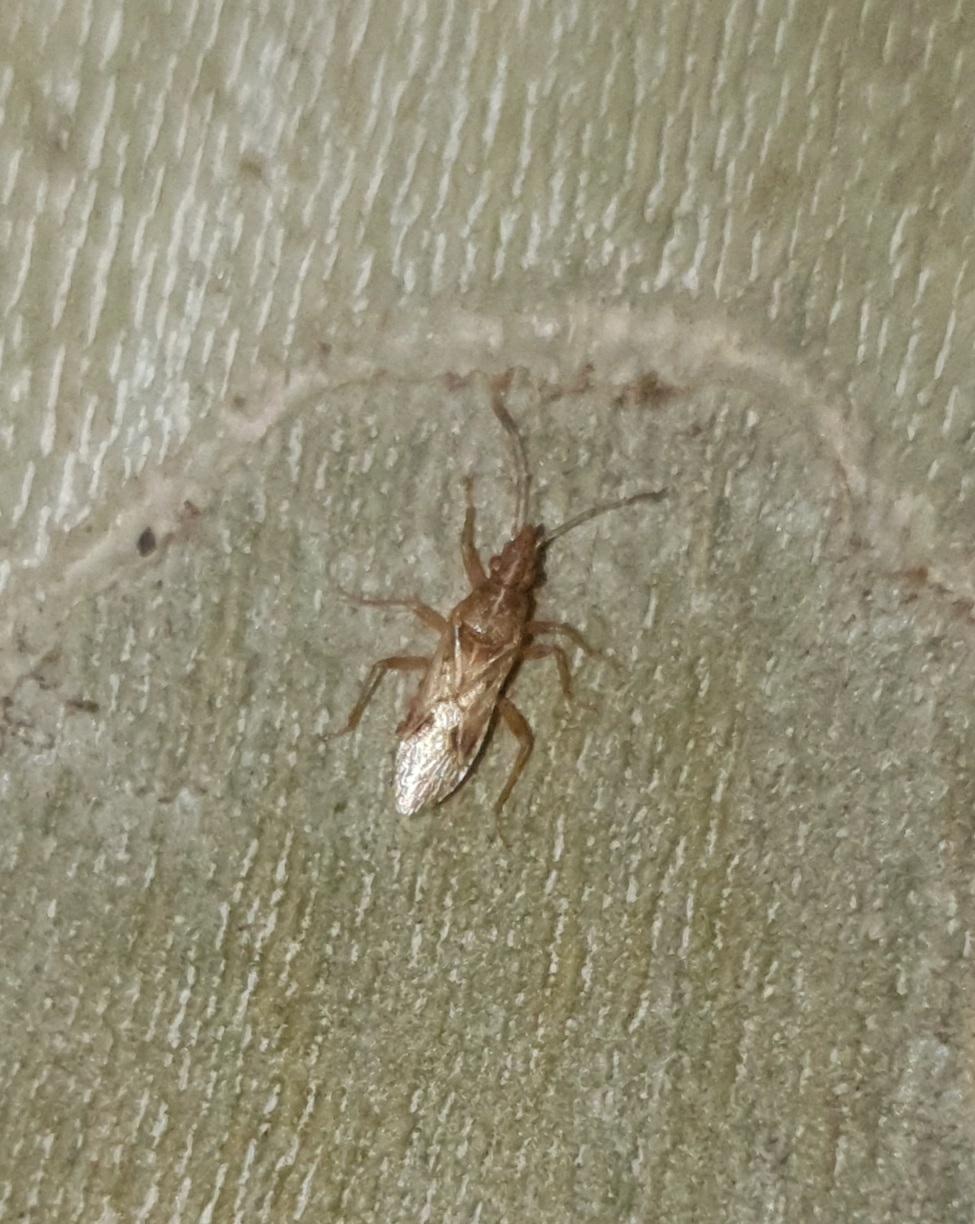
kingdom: Animalia
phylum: Arthropoda
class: Insecta
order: Hemiptera
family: Lygaeidae
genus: Belonochilus
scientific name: Belonochilus numenius
